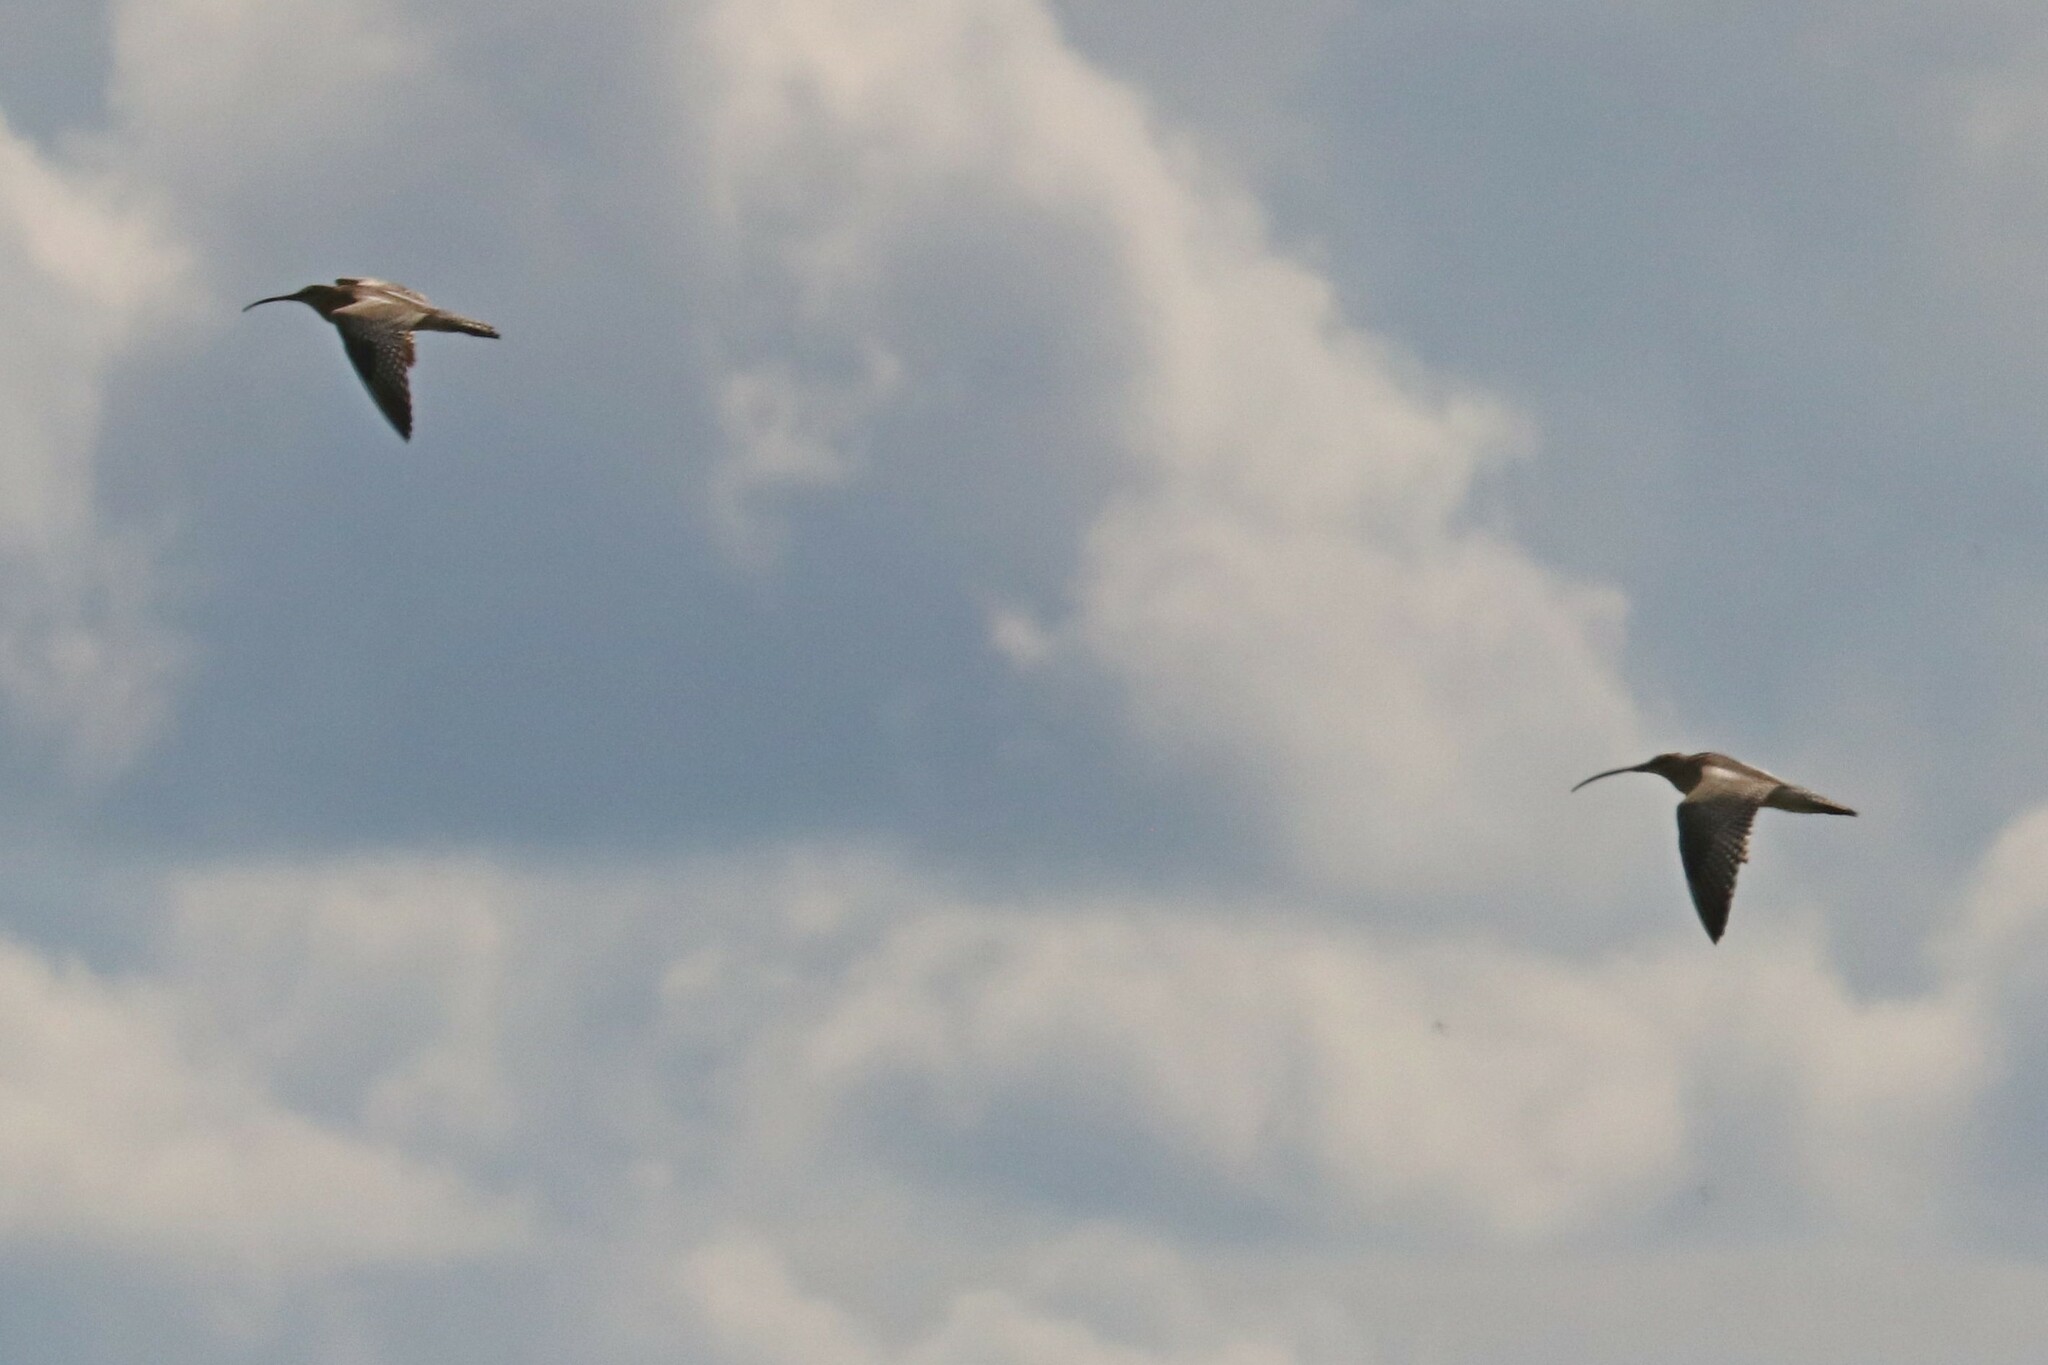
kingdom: Animalia
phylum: Chordata
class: Aves
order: Charadriiformes
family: Scolopacidae
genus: Numenius
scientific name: Numenius arquata
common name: Eurasian curlew
